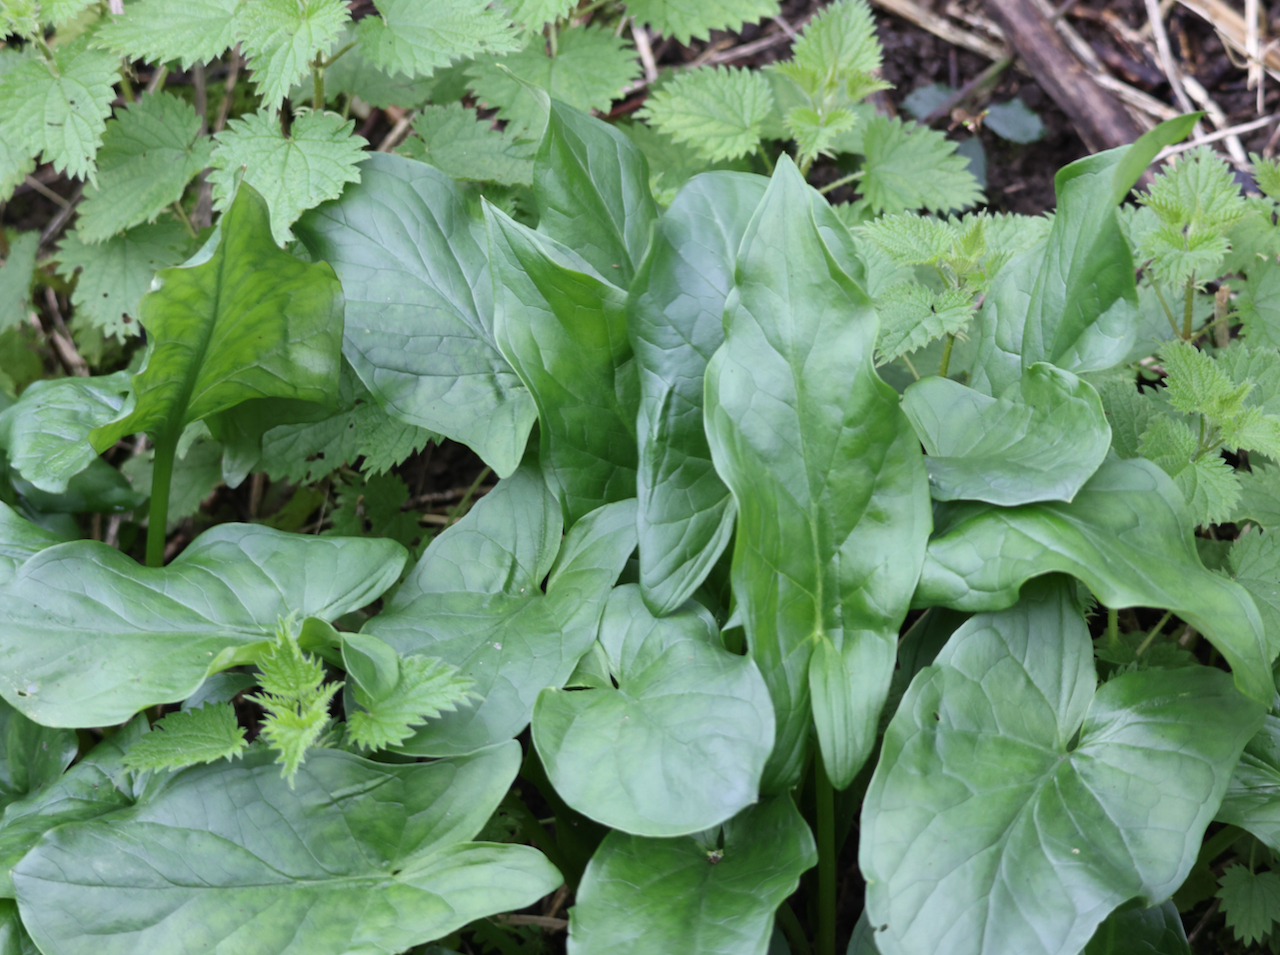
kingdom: Plantae
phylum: Tracheophyta
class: Liliopsida
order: Alismatales
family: Araceae
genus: Arum
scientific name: Arum maculatum
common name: Lords-and-ladies
